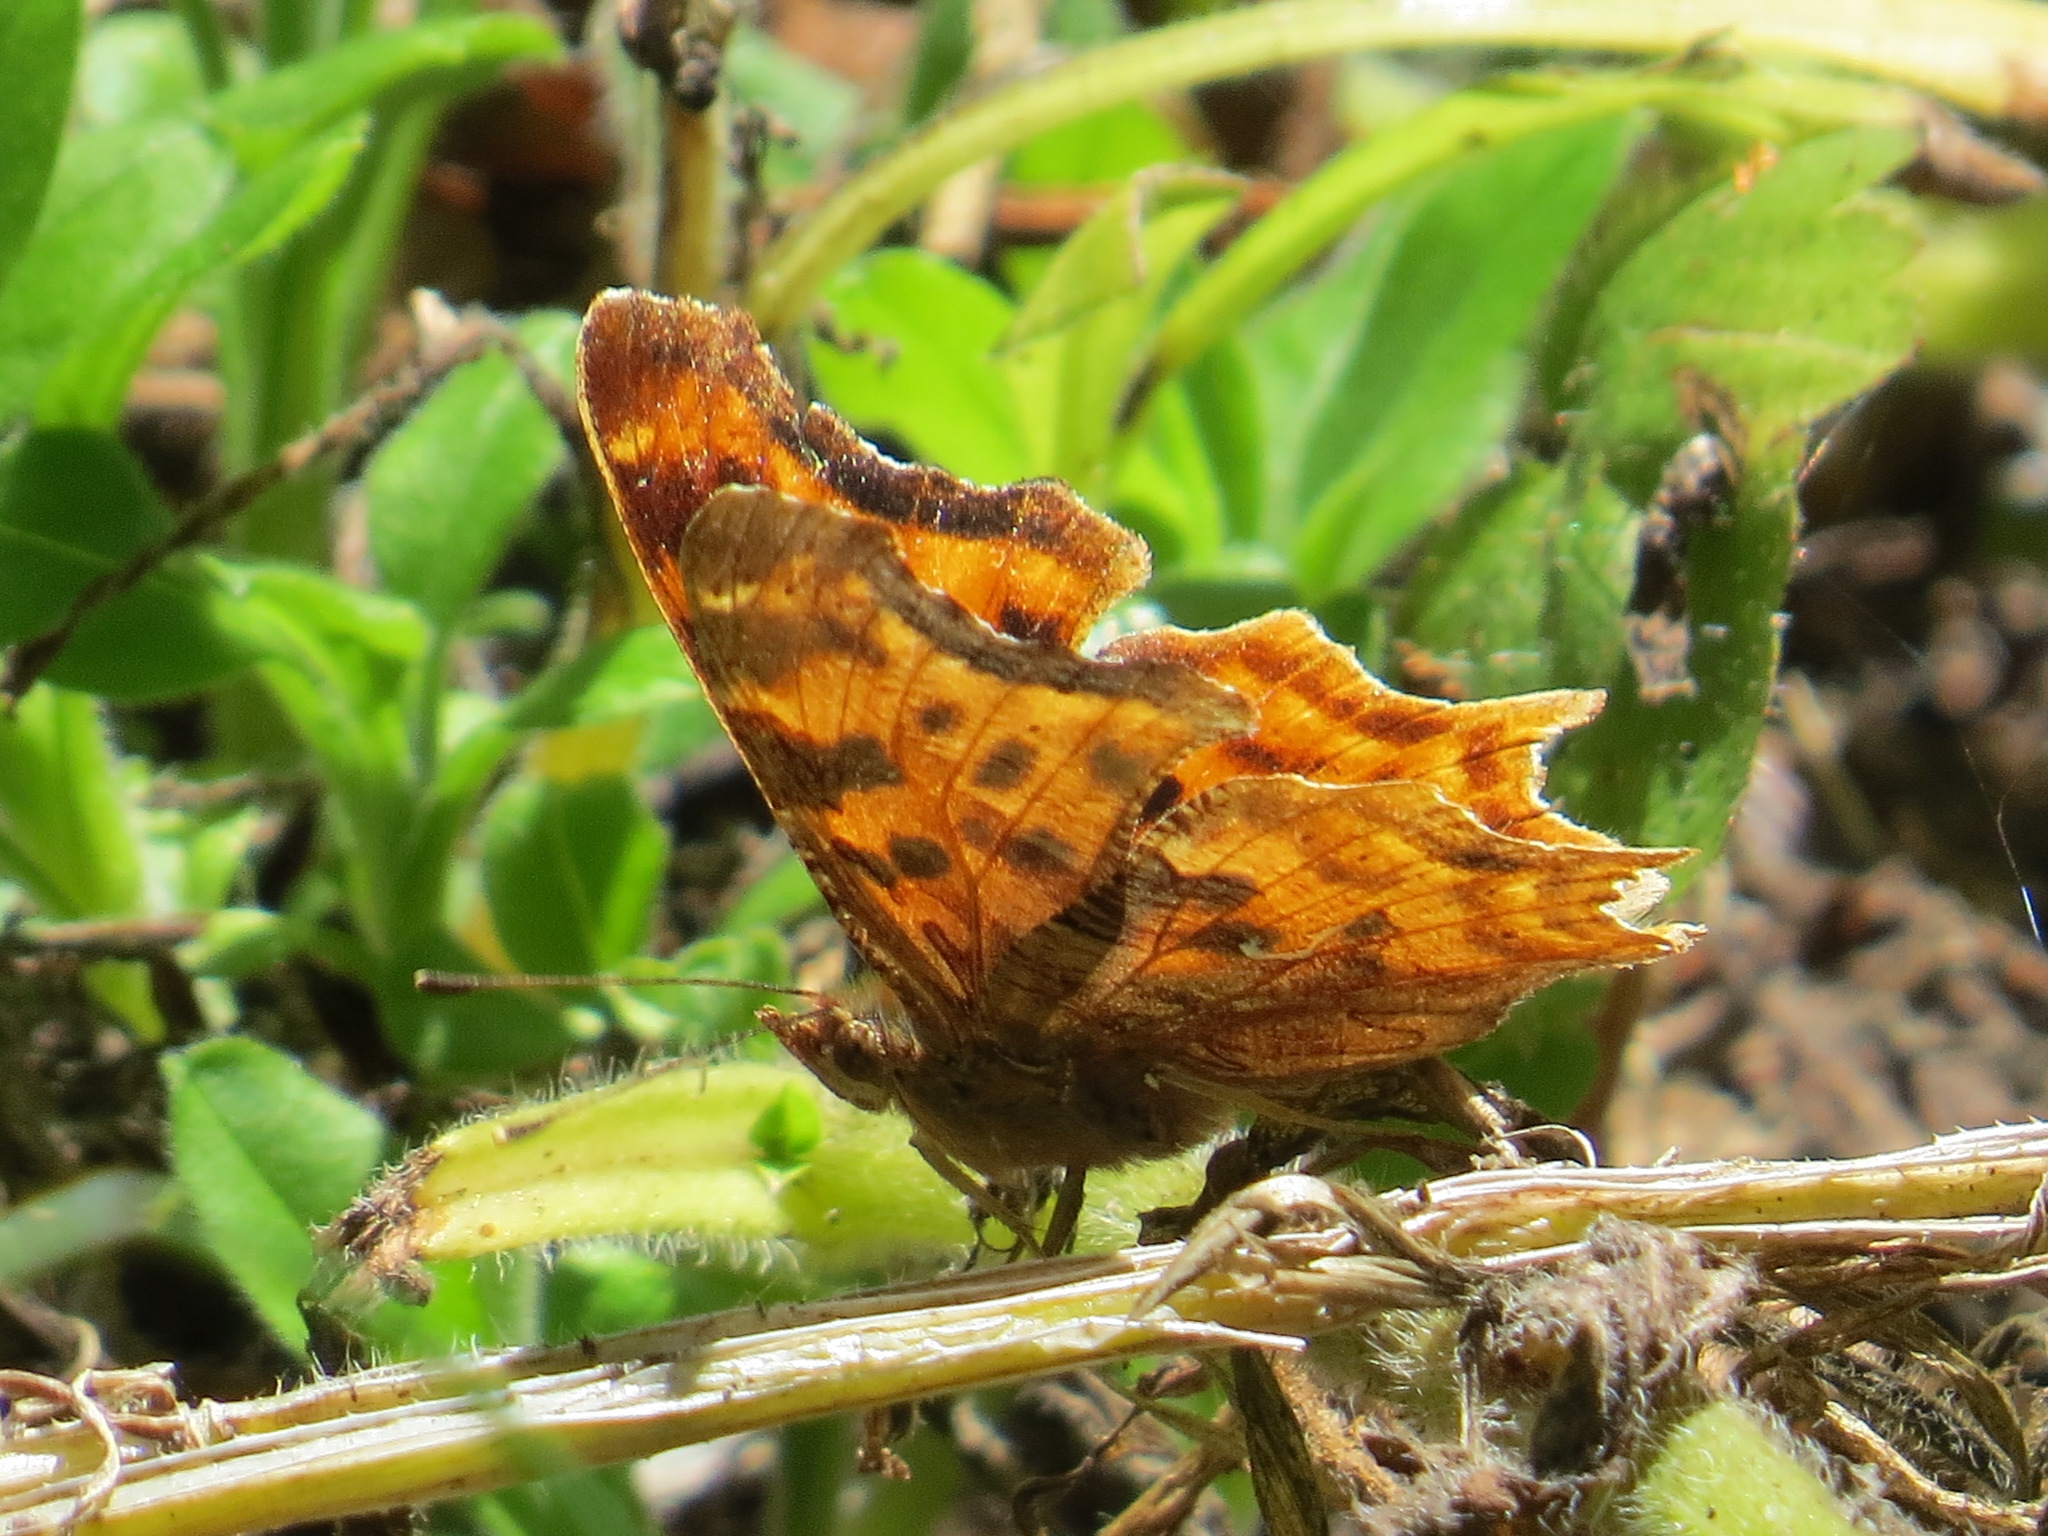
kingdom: Animalia
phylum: Arthropoda
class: Insecta
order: Lepidoptera
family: Nymphalidae
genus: Polygonia
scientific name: Polygonia satyrus
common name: Satyr angle wing
